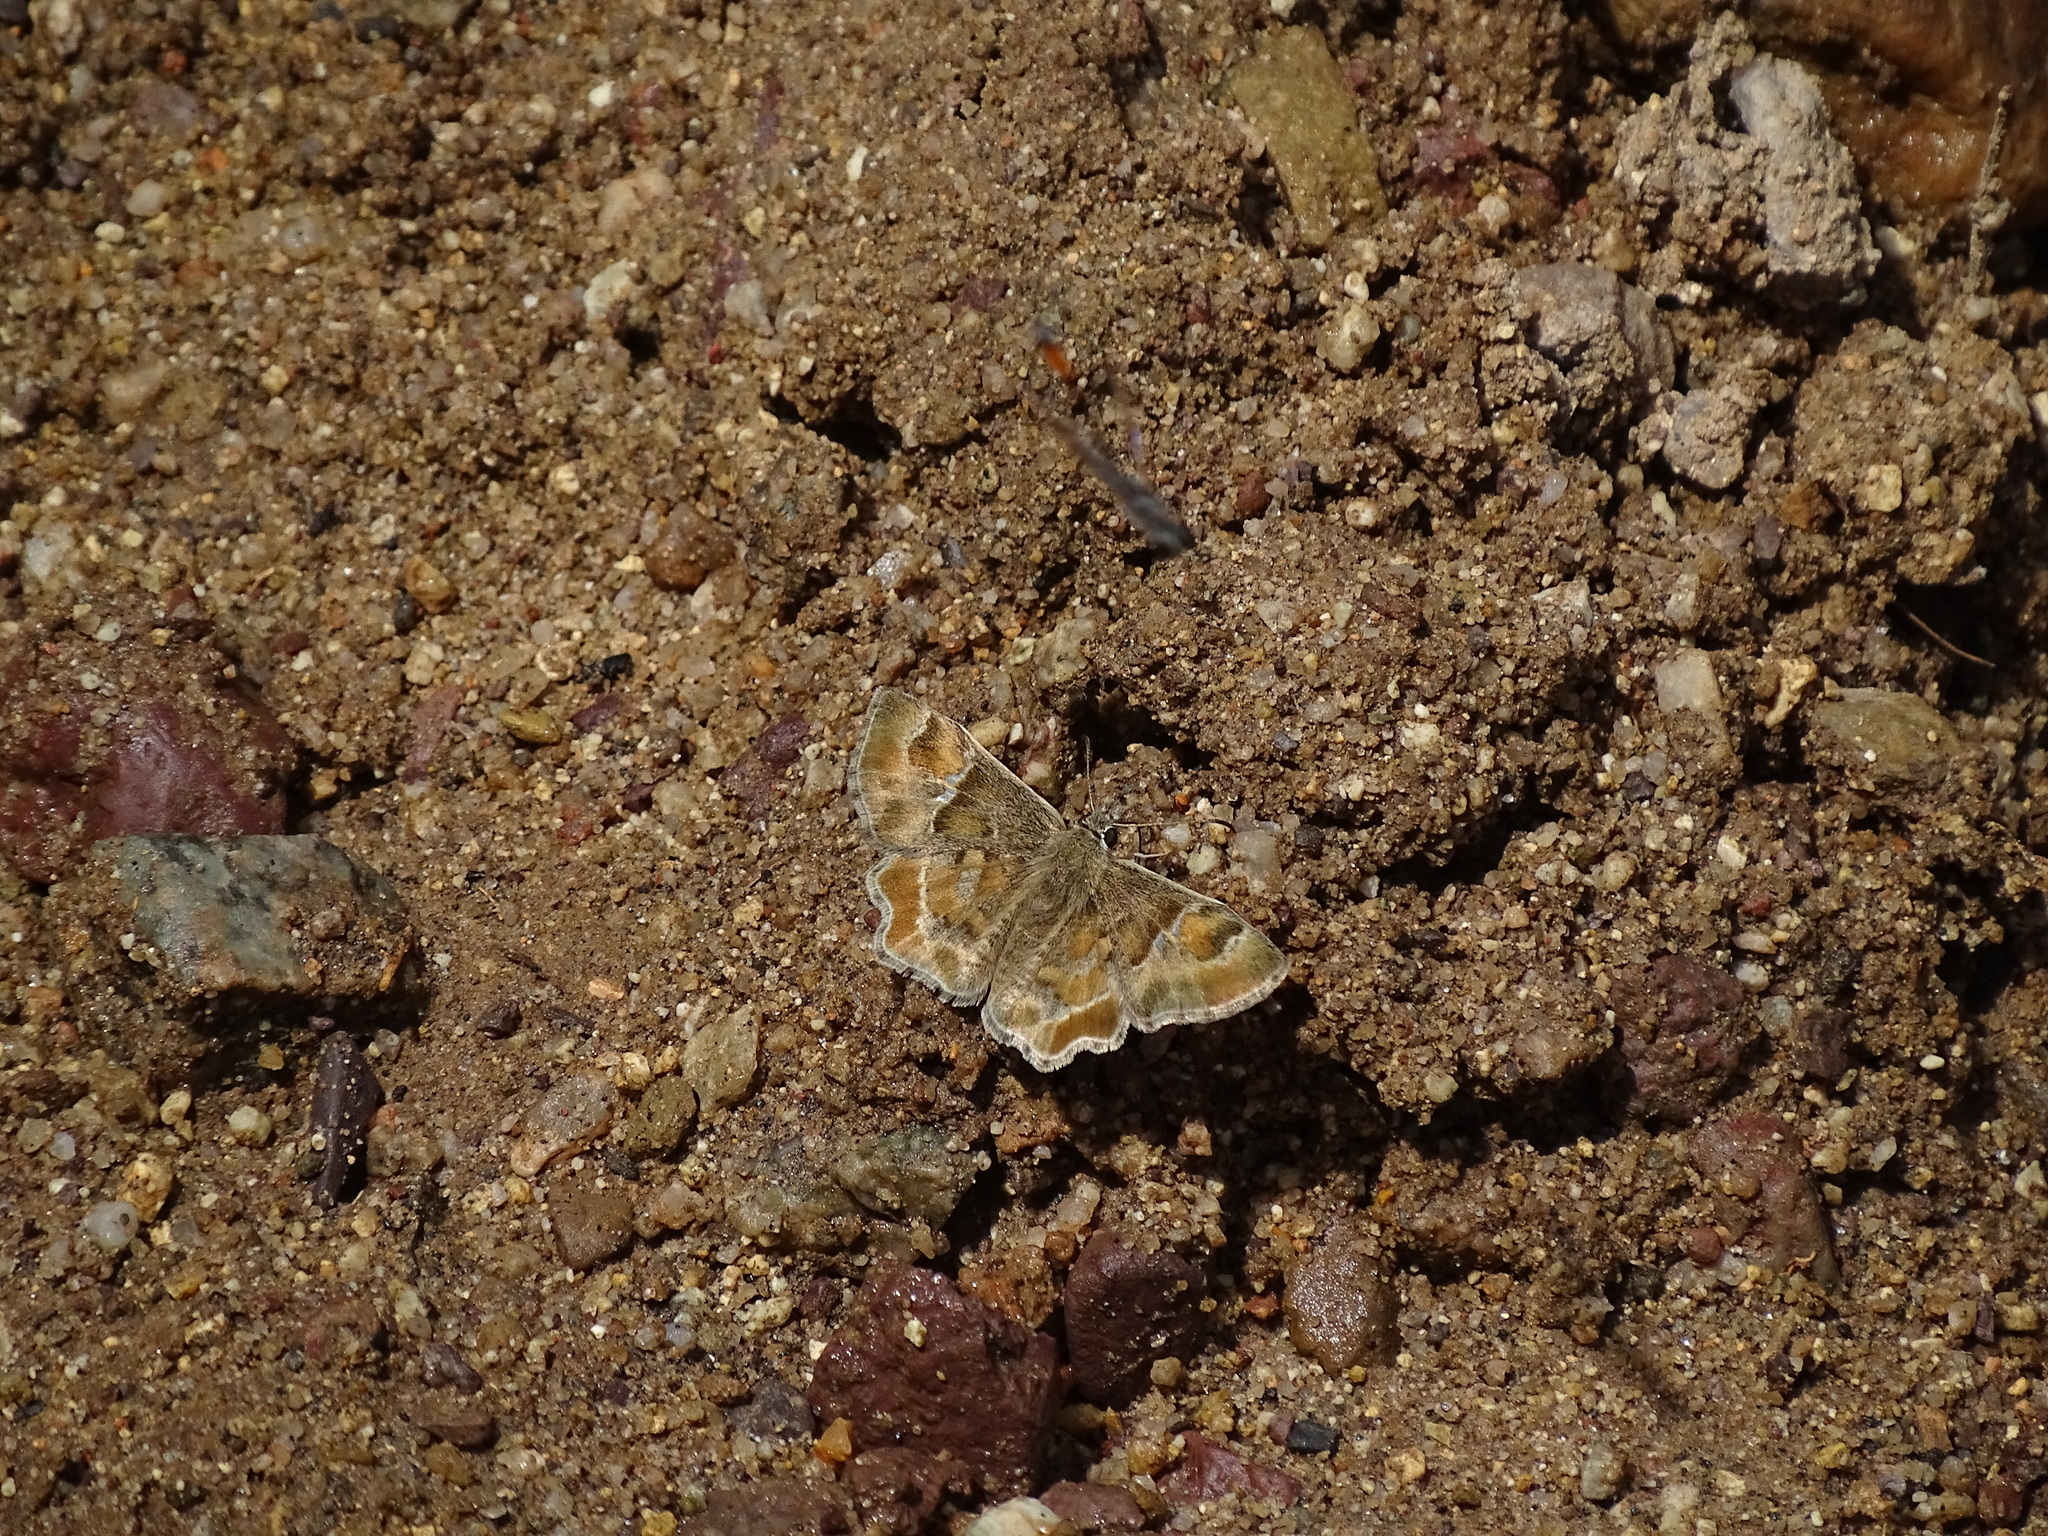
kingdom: Animalia
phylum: Arthropoda
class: Insecta
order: Lepidoptera
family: Hesperiidae
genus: Systasea
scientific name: Systasea zampa
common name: Arizona powdered-skipper
